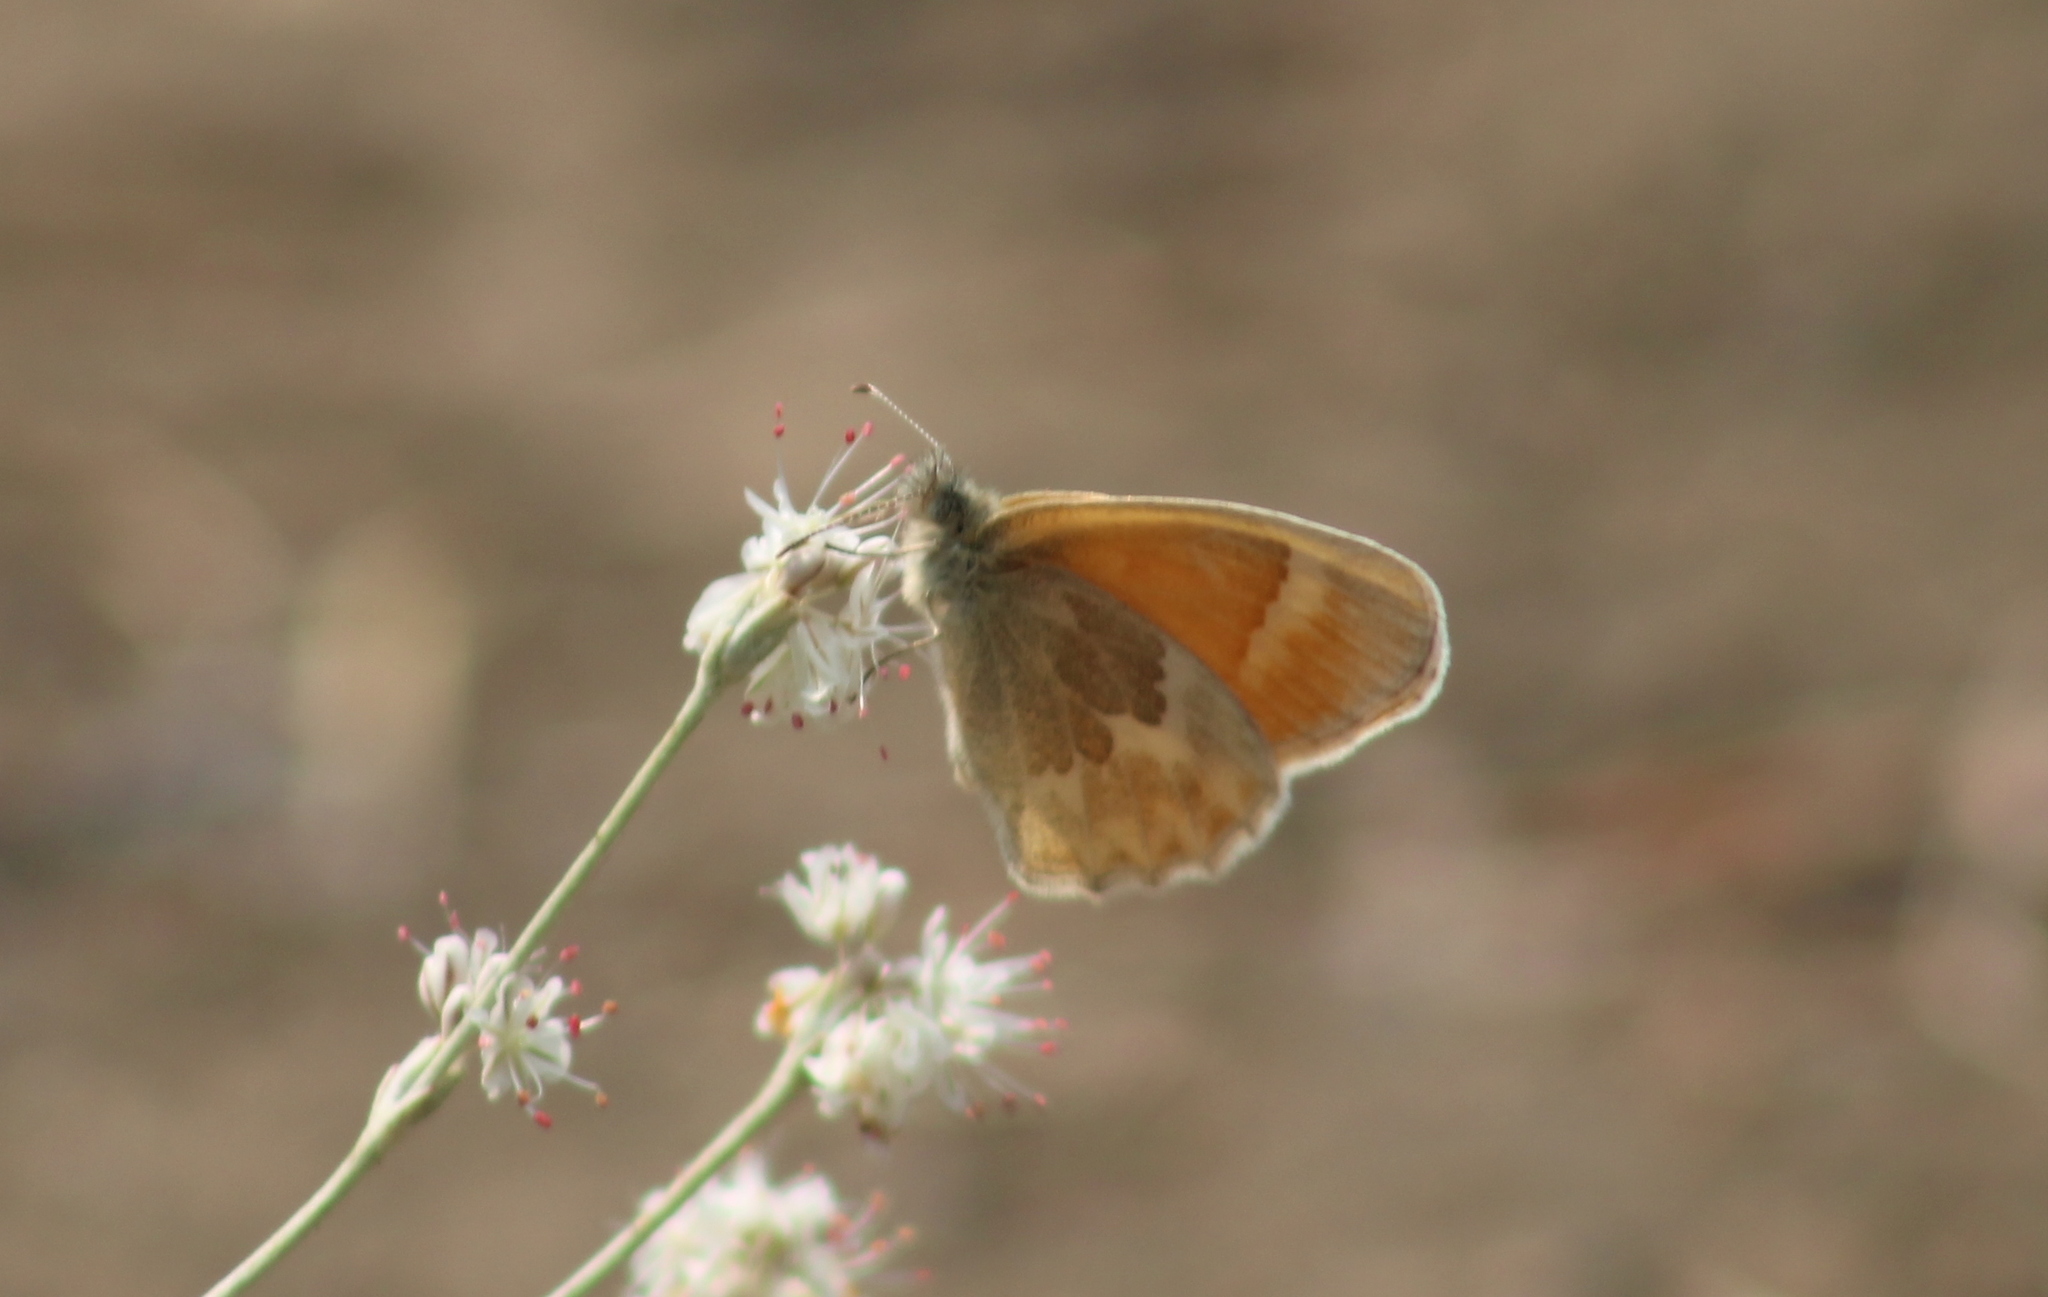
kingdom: Animalia
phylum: Arthropoda
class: Insecta
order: Lepidoptera
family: Nymphalidae
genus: Coenonympha
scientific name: Coenonympha california
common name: Common ringlet
